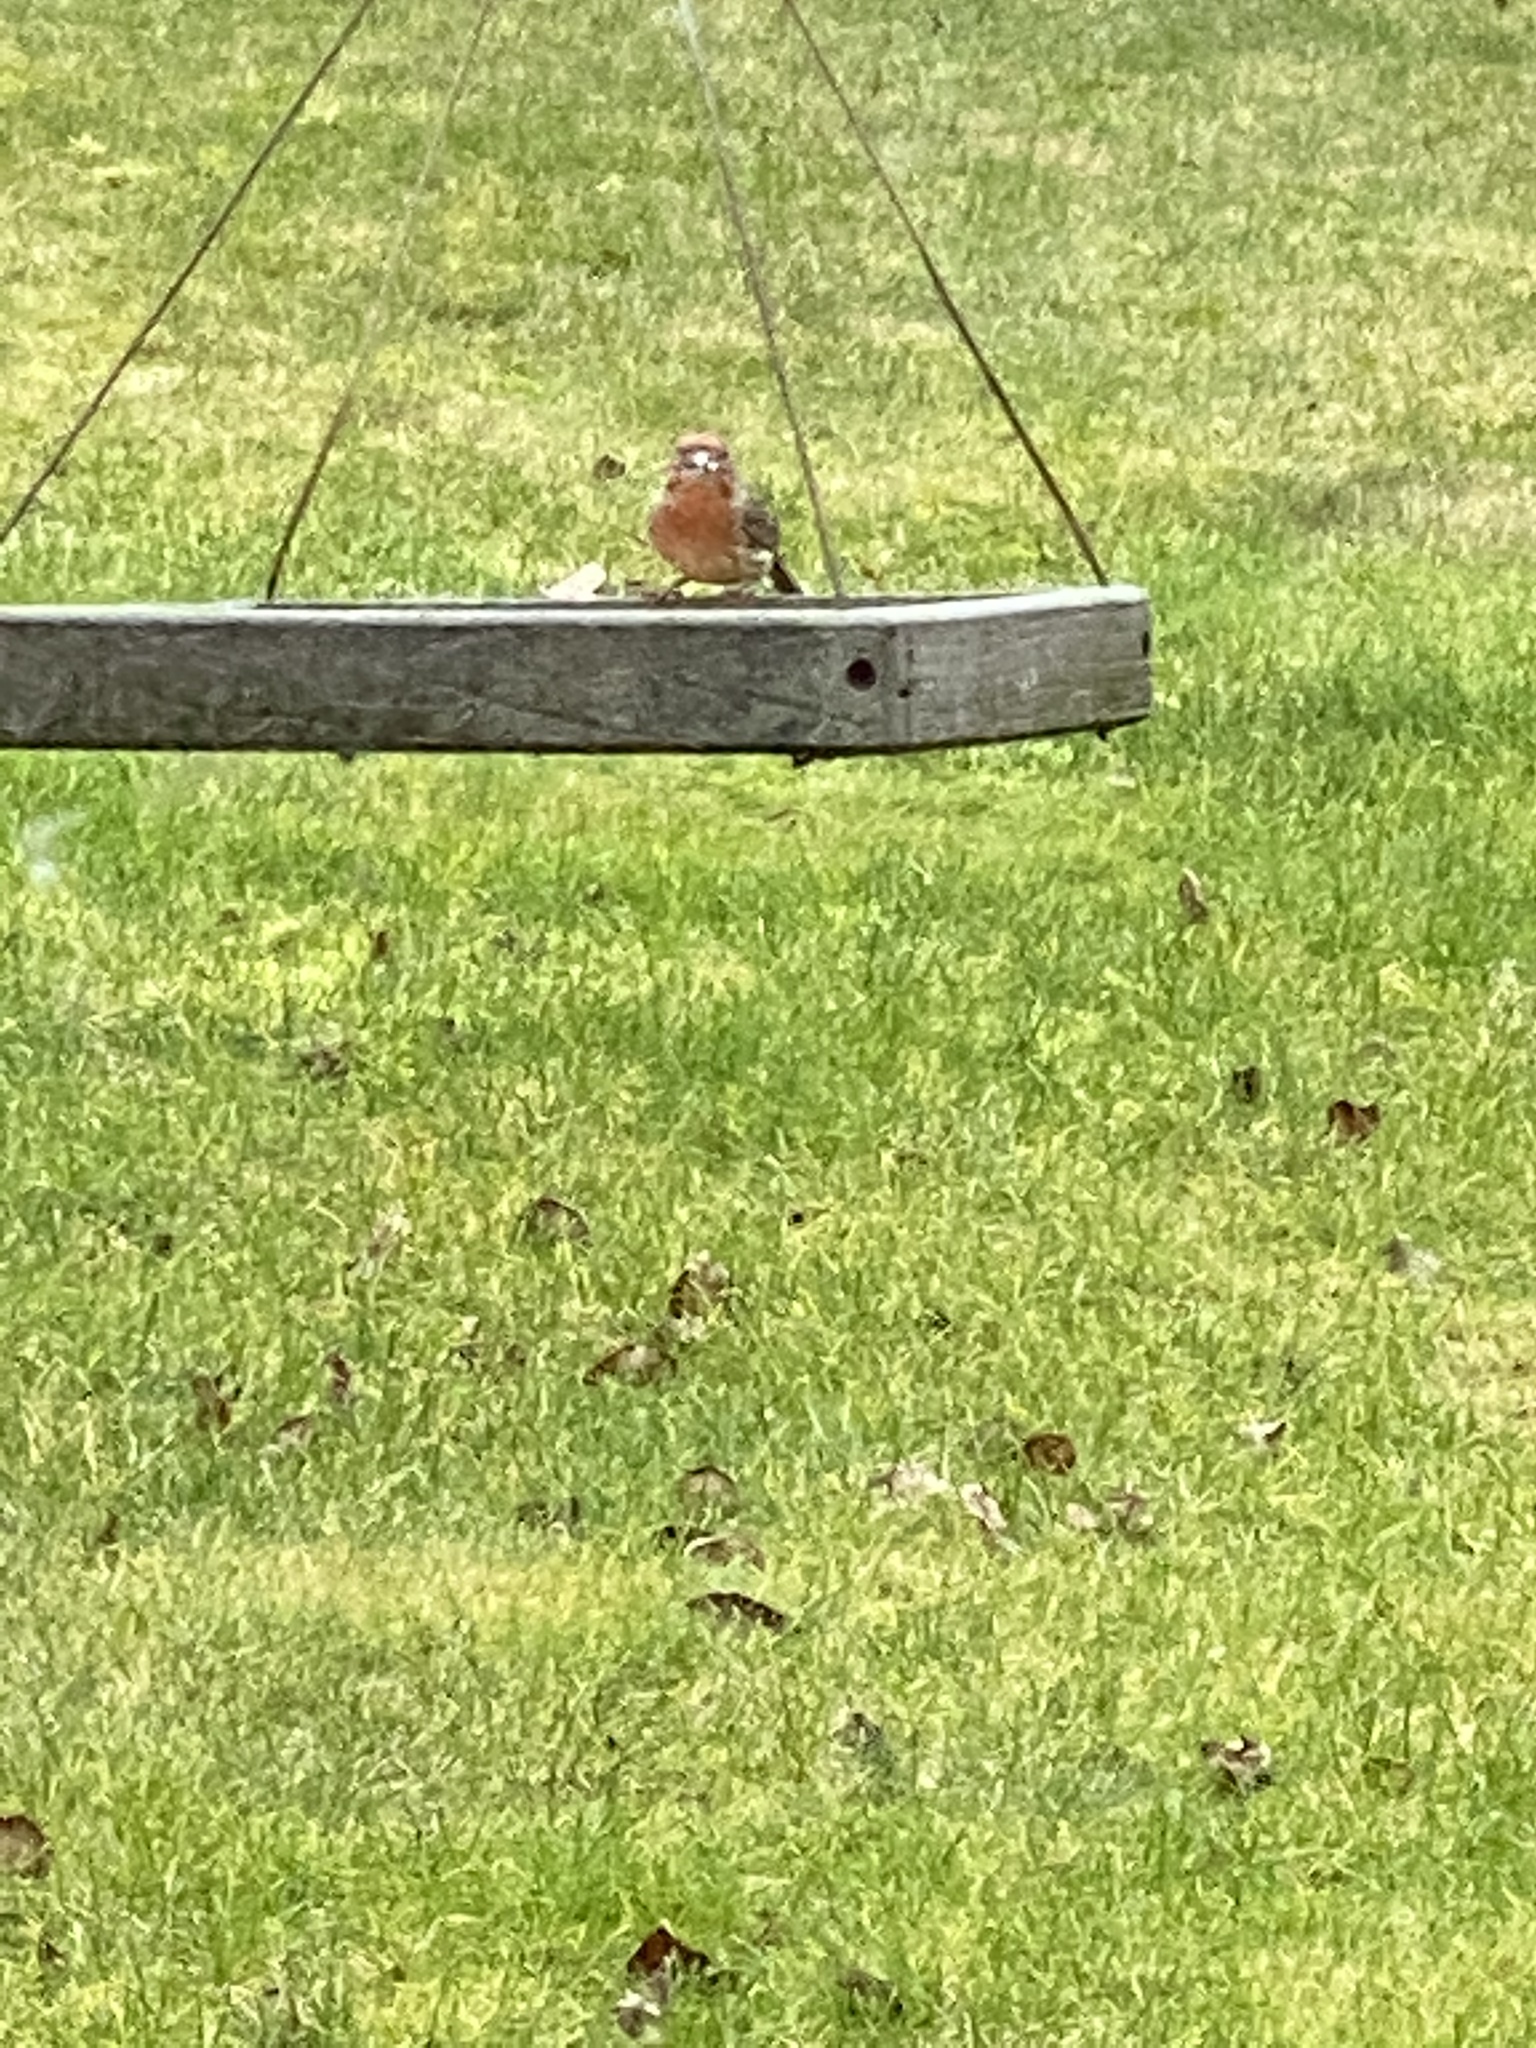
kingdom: Animalia
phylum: Chordata
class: Aves
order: Passeriformes
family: Fringillidae
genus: Haemorhous
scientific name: Haemorhous mexicanus
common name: House finch
